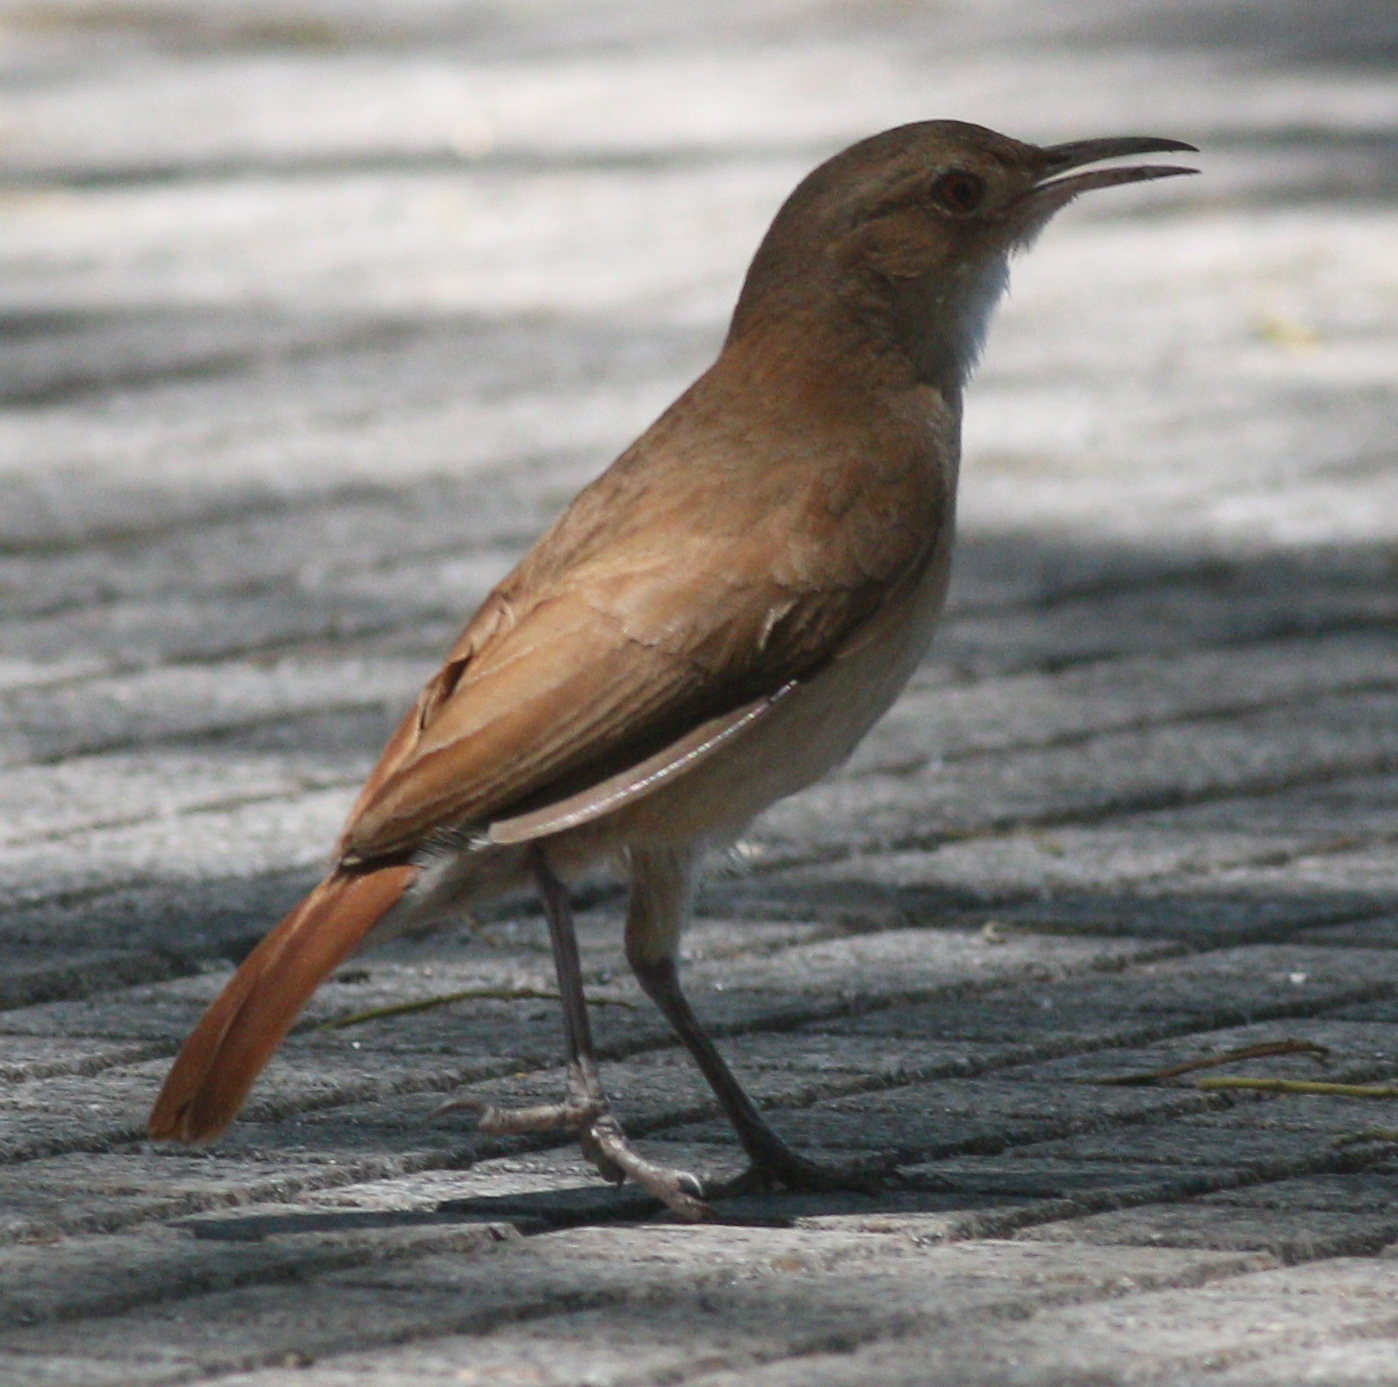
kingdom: Animalia
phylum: Chordata
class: Aves
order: Passeriformes
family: Furnariidae
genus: Furnarius
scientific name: Furnarius rufus
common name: Rufous hornero
